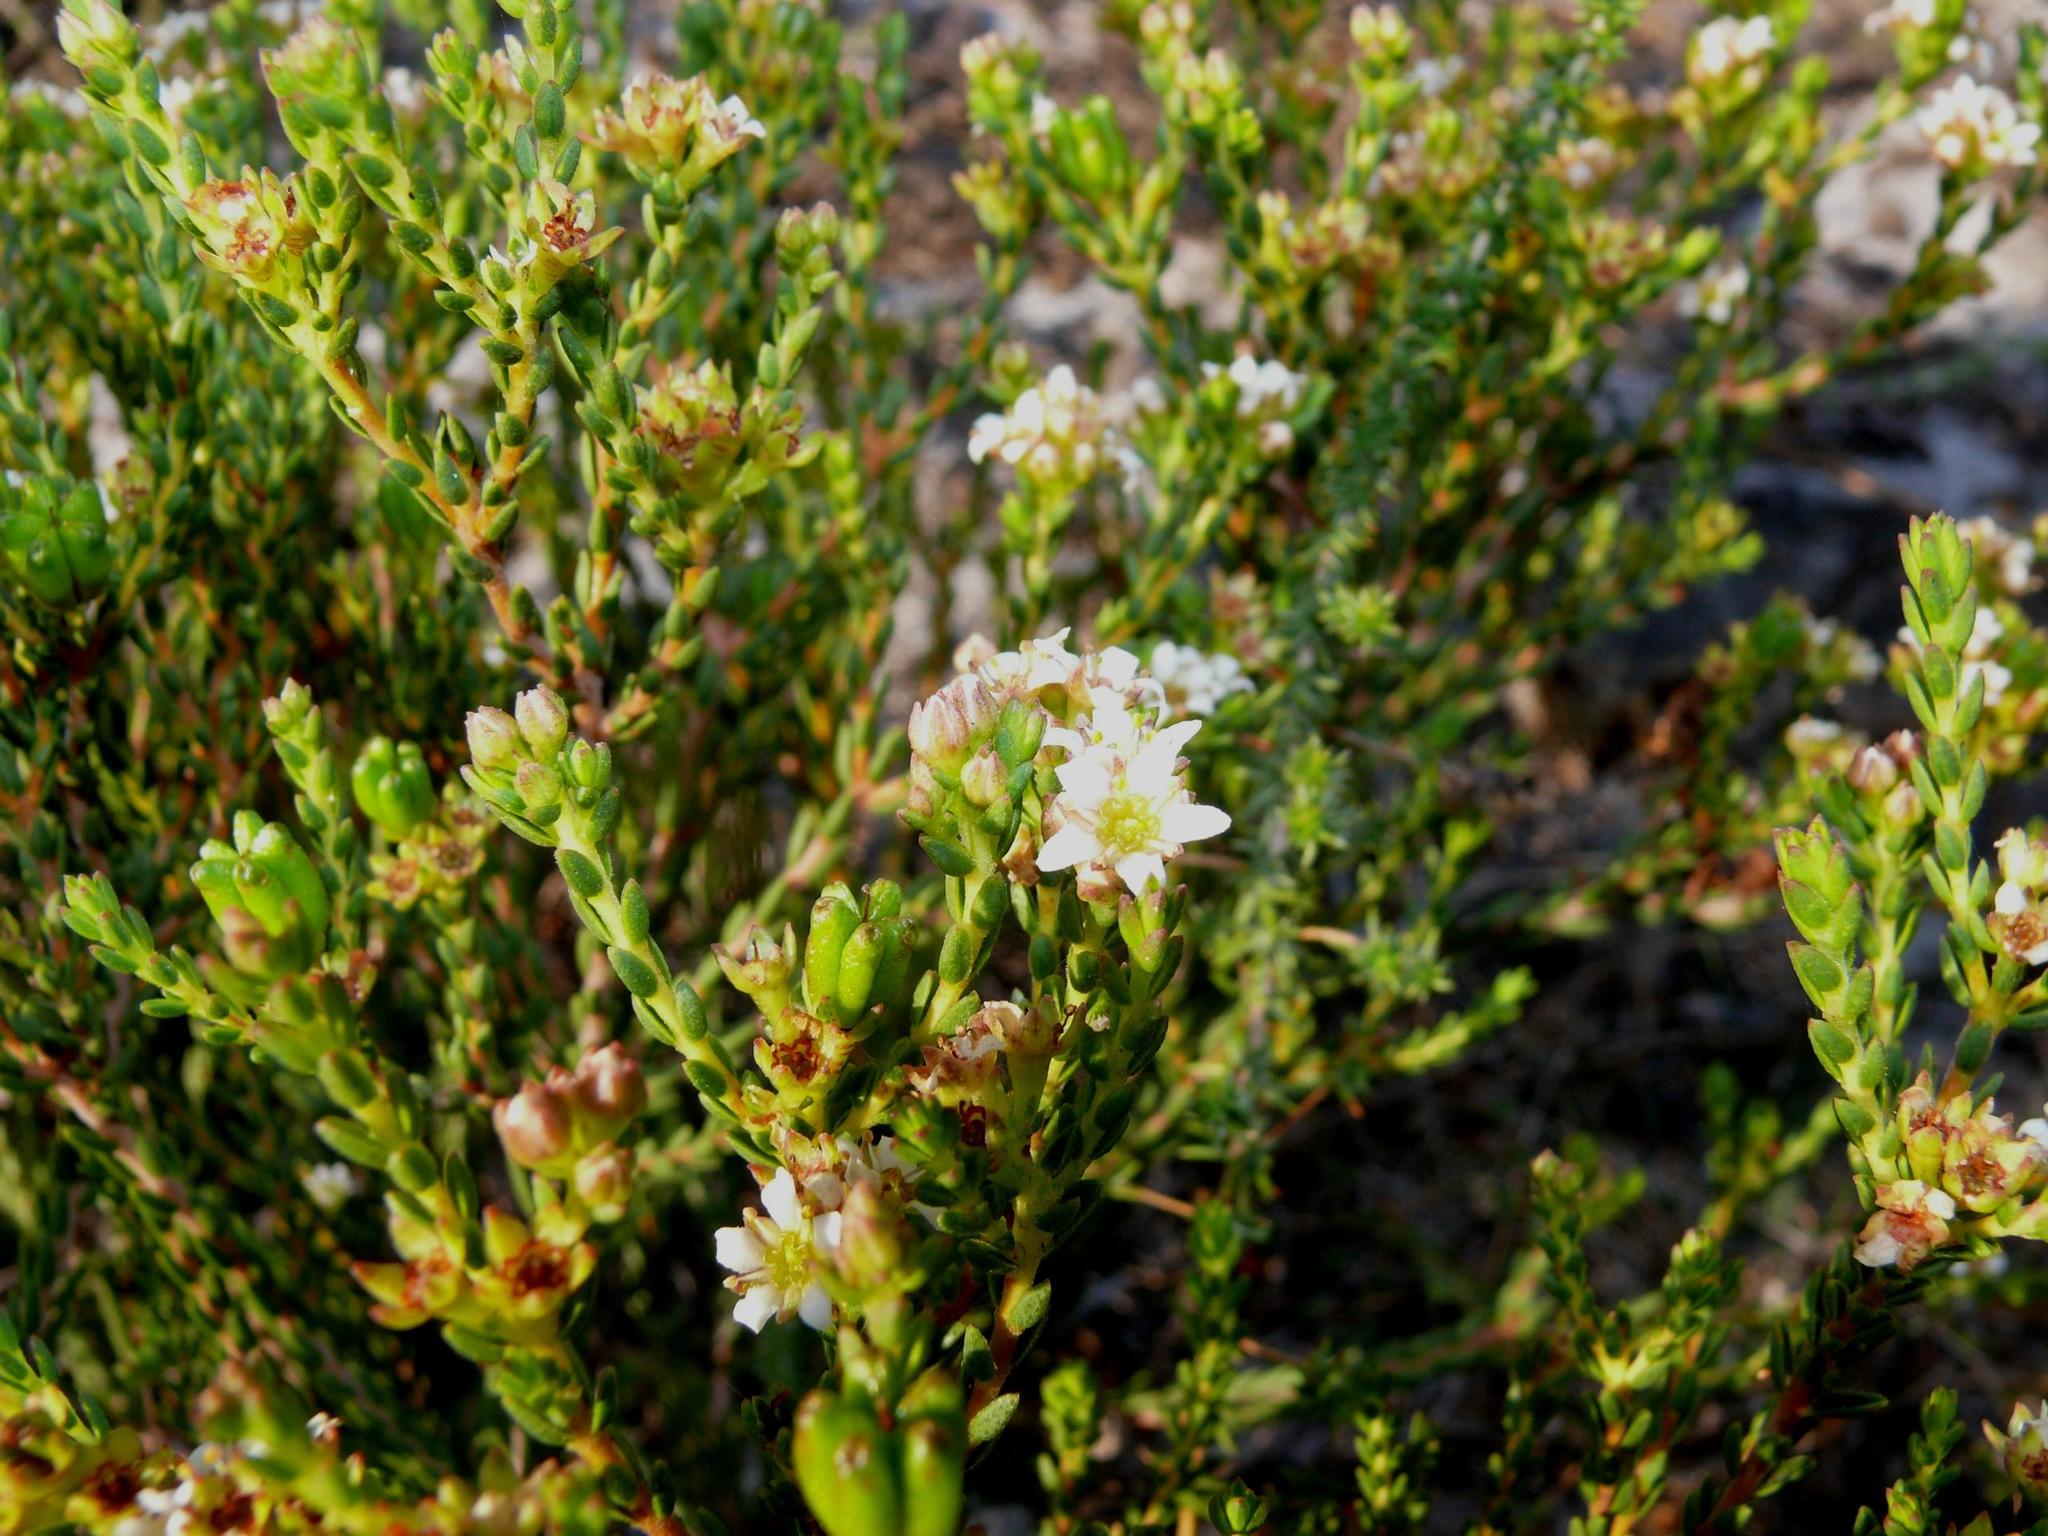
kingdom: Plantae
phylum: Tracheophyta
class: Magnoliopsida
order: Sapindales
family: Rutaceae
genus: Diosma
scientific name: Diosma oppositifolia
